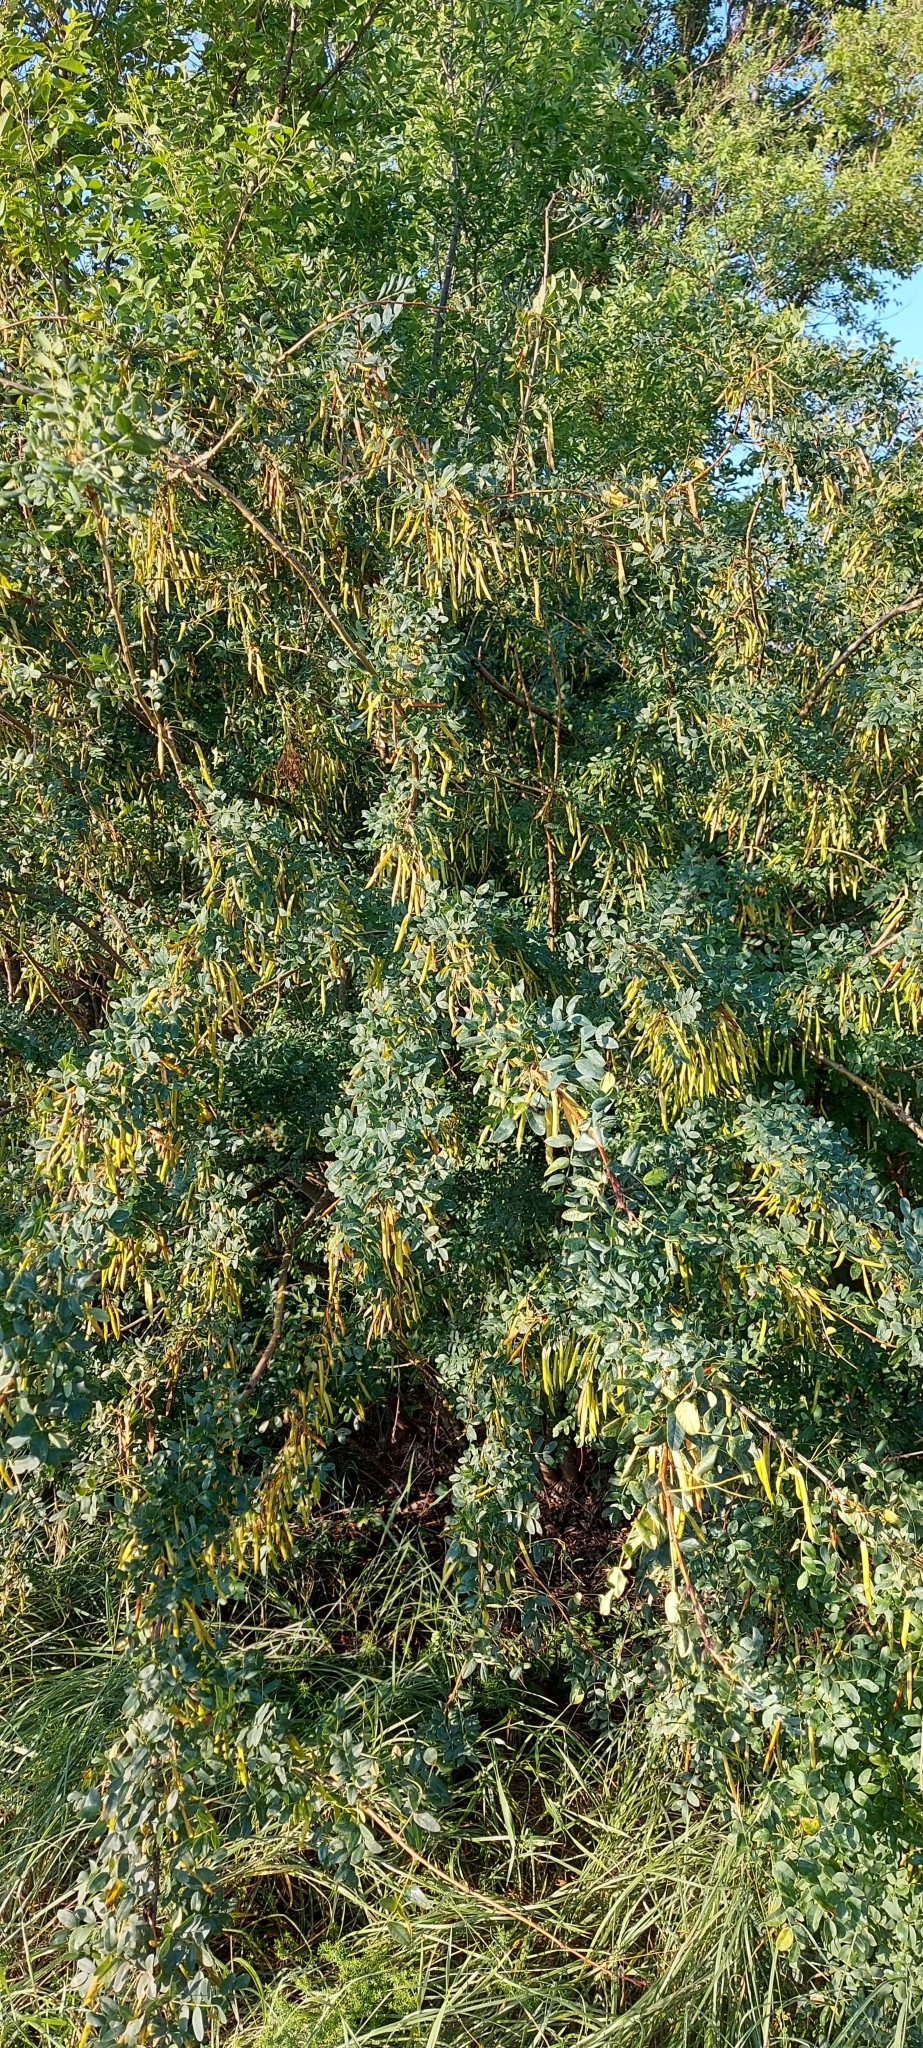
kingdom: Plantae
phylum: Tracheophyta
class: Magnoliopsida
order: Fabales
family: Fabaceae
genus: Caragana
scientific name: Caragana arborescens
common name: Siberian peashrub
